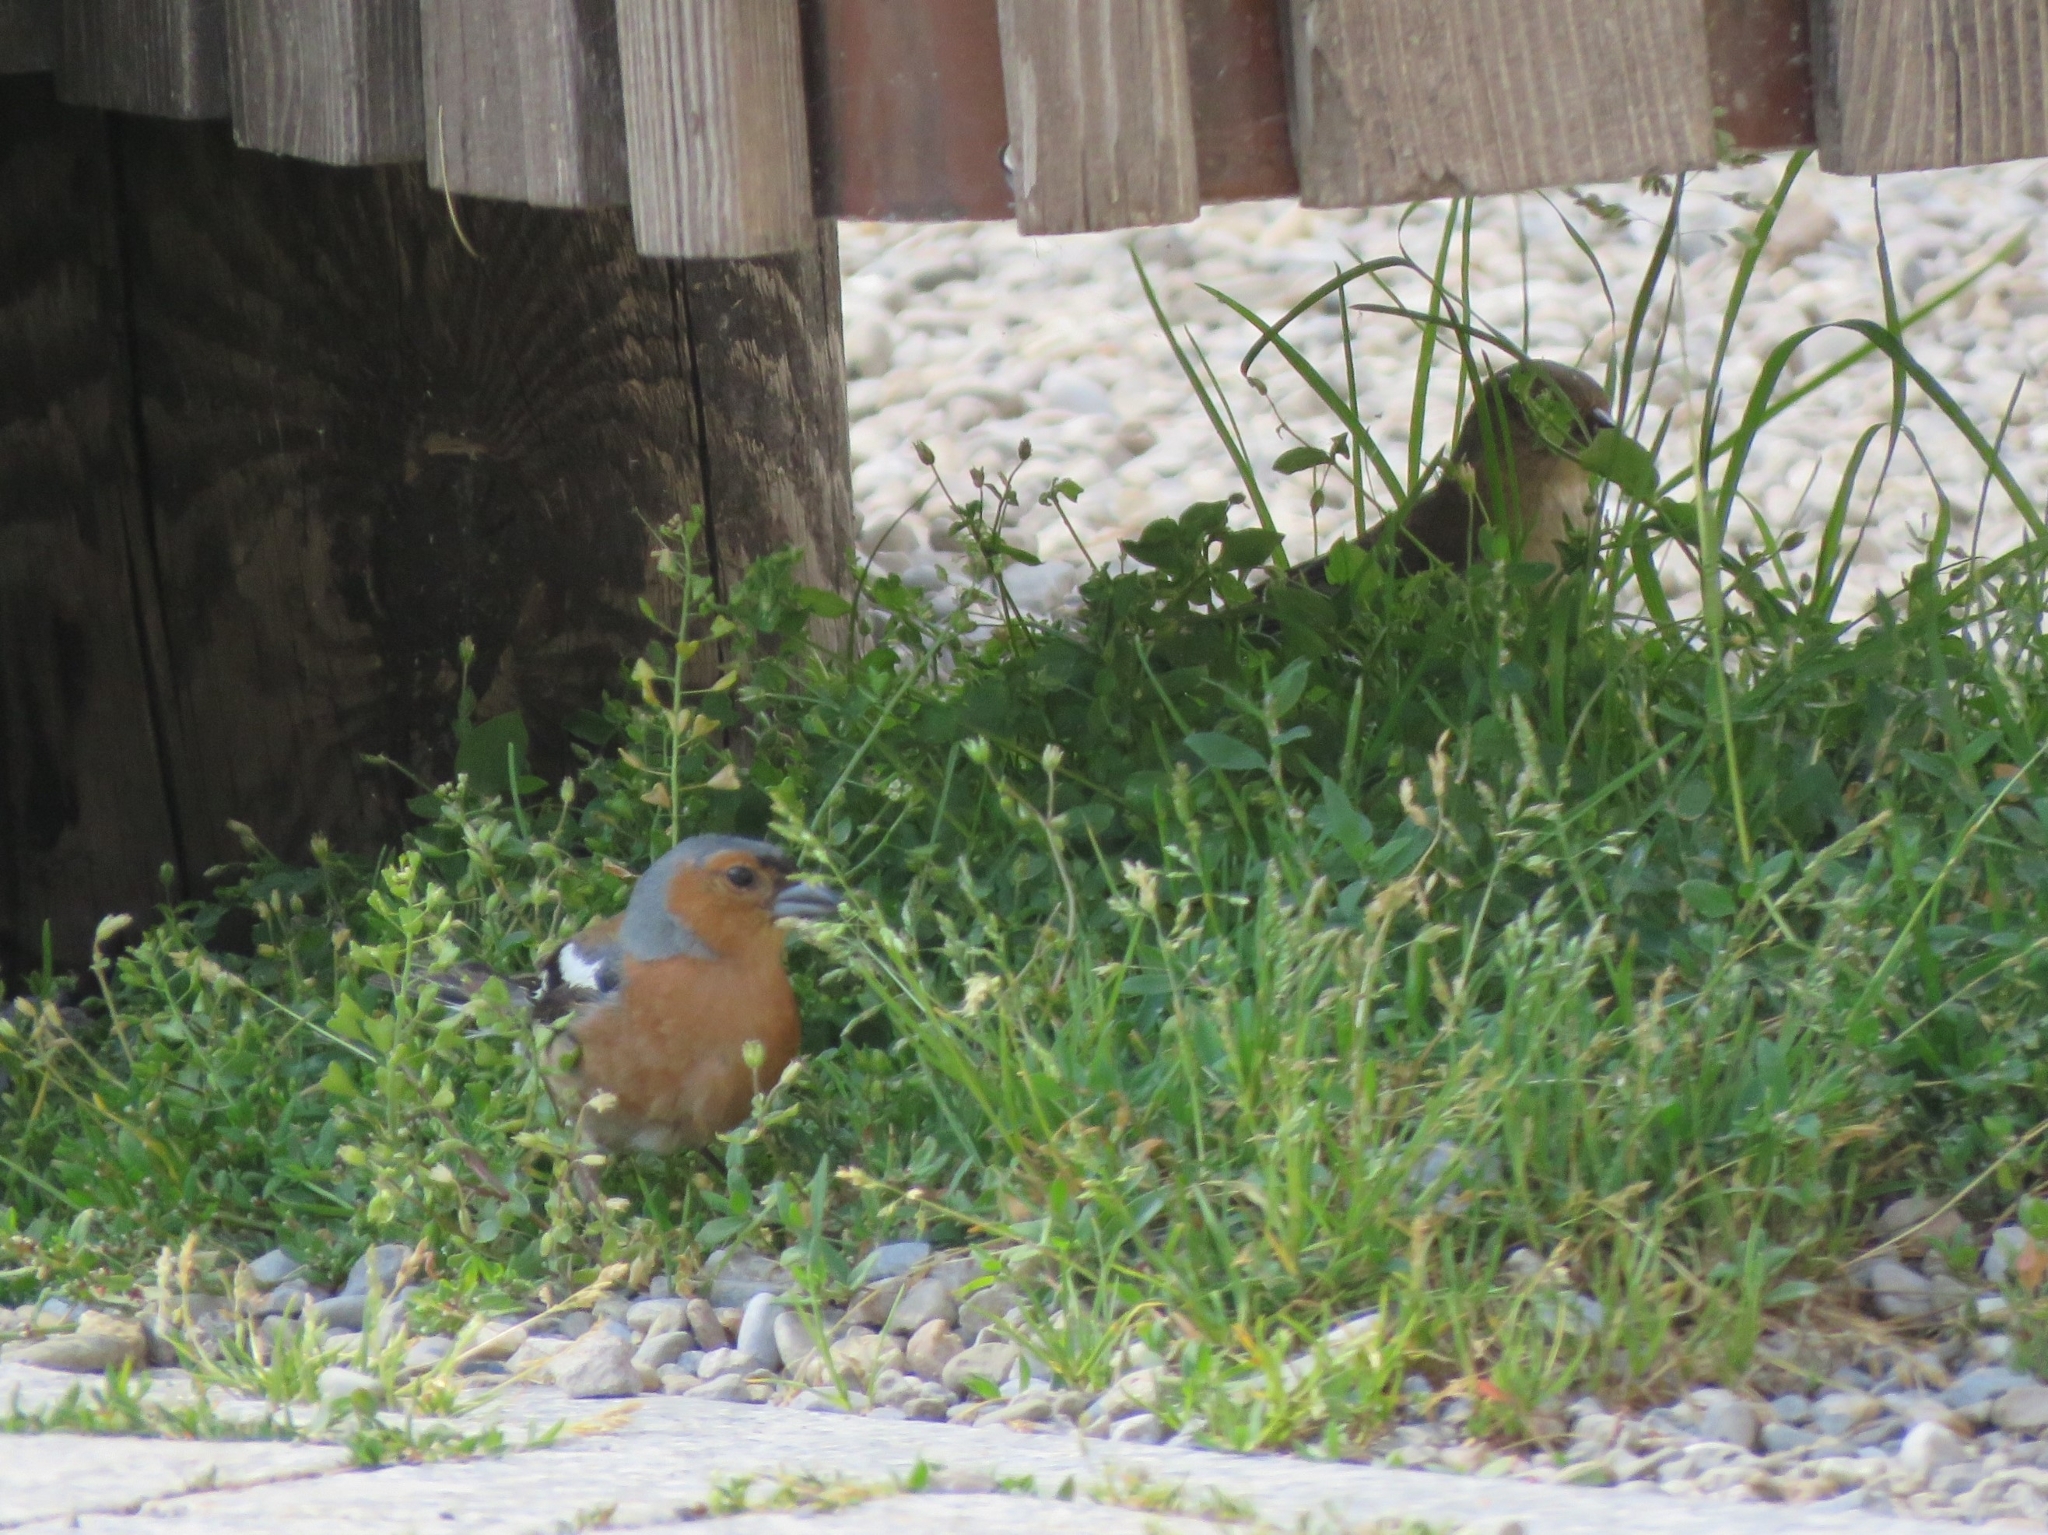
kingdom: Animalia
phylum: Chordata
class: Aves
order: Passeriformes
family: Fringillidae
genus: Fringilla
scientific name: Fringilla coelebs
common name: Common chaffinch
